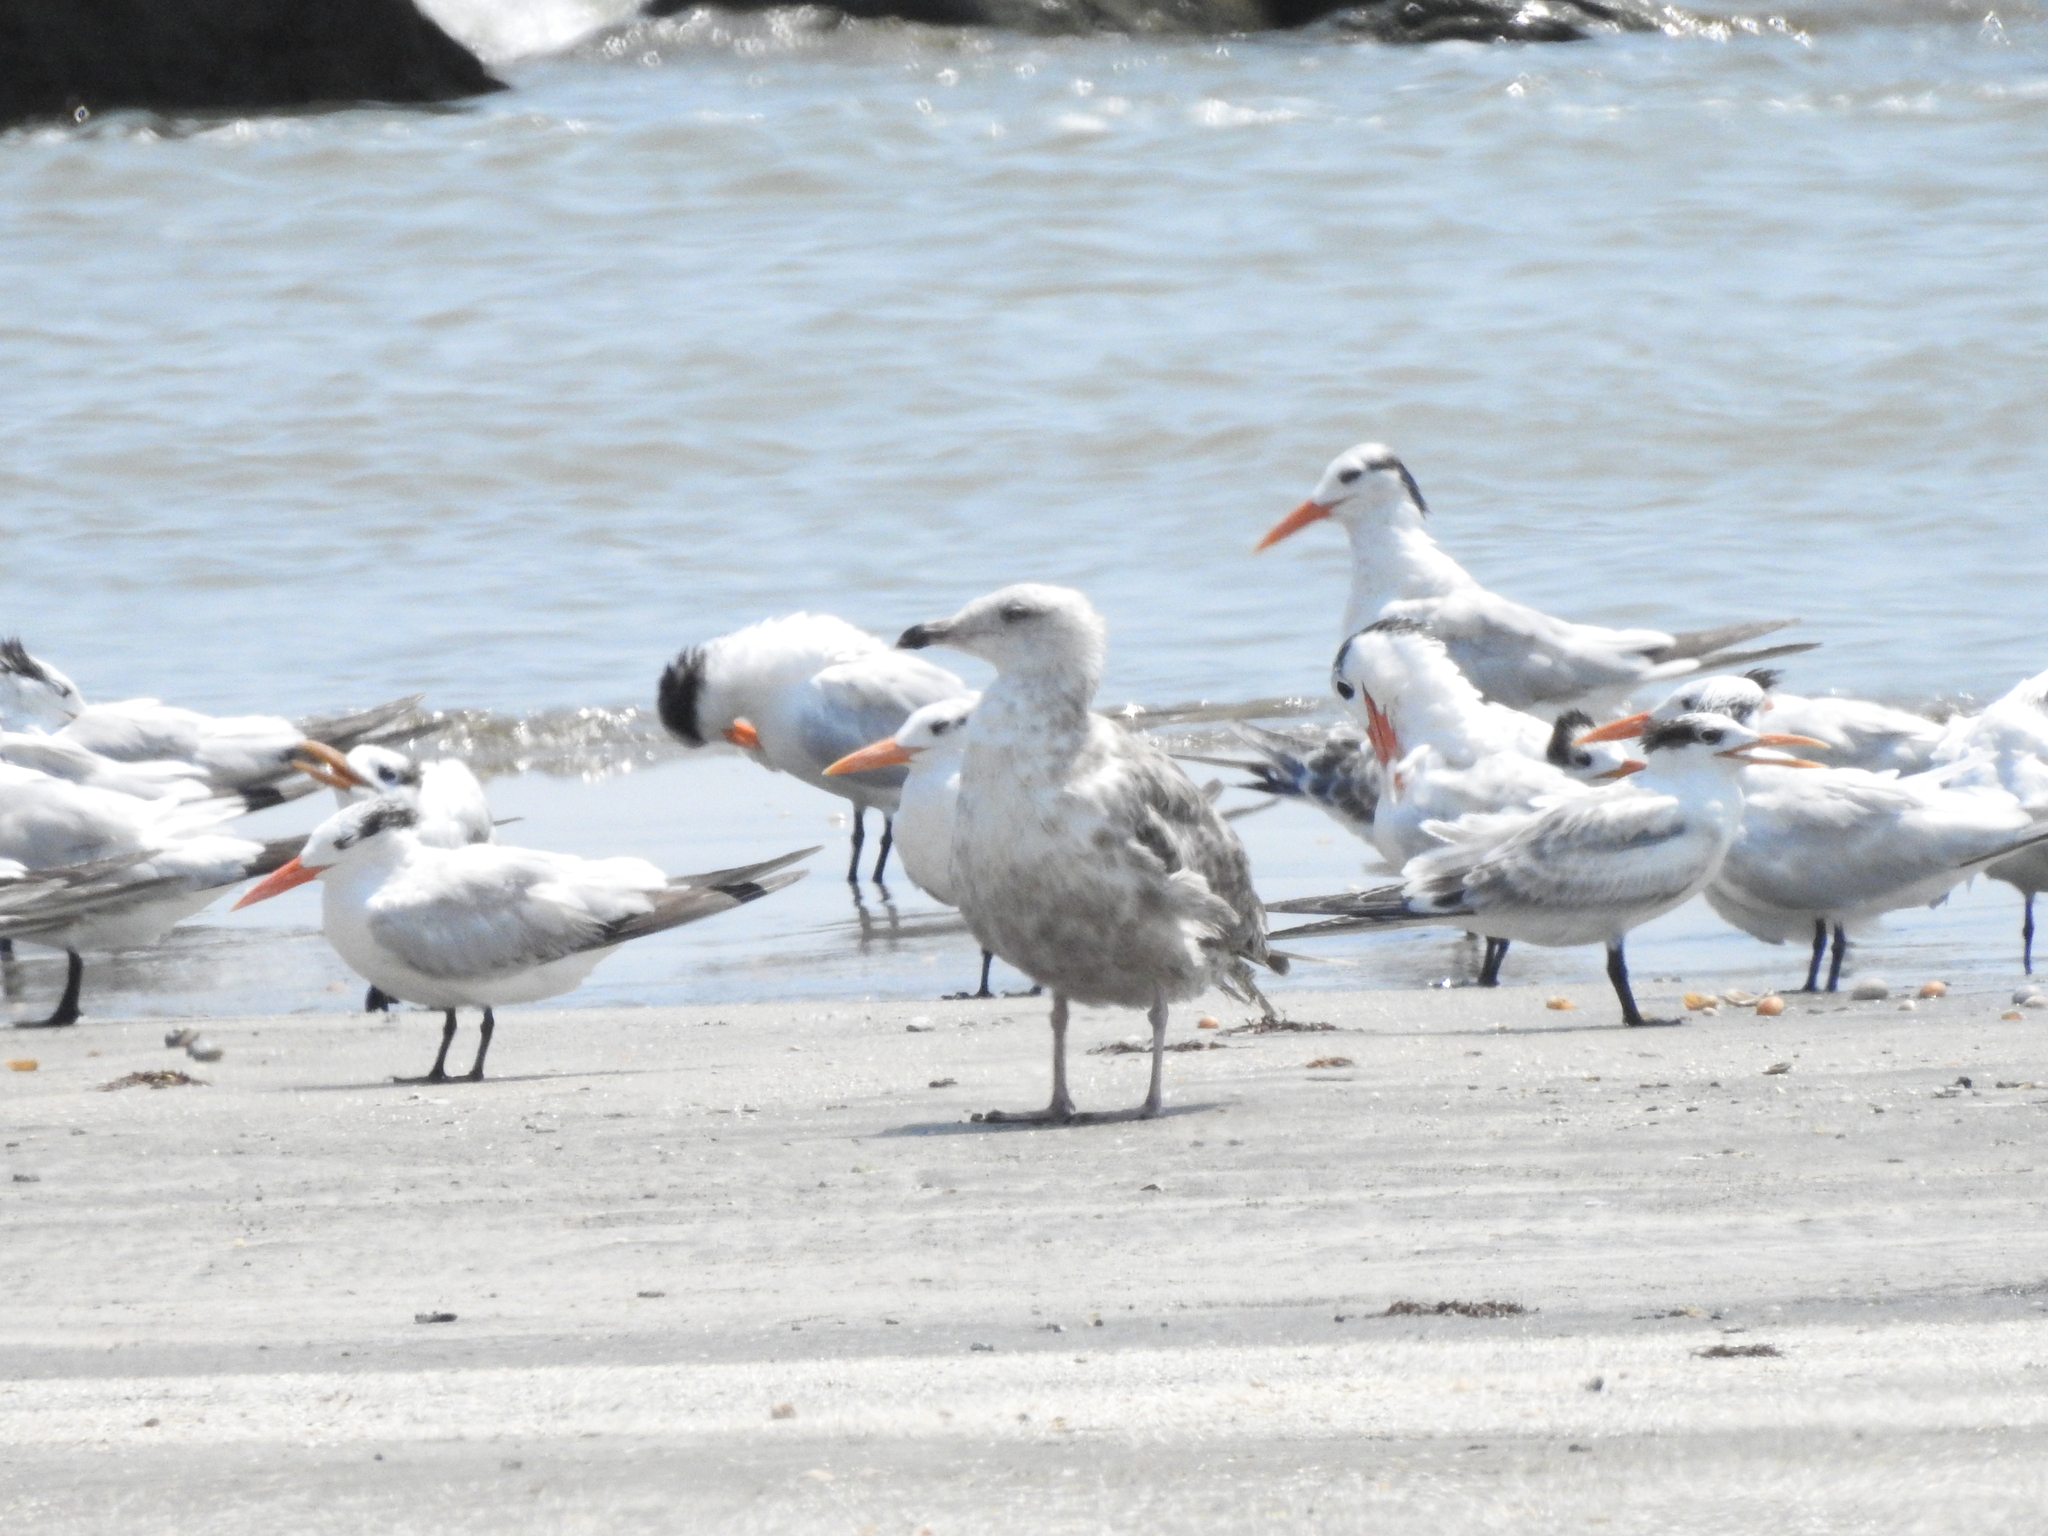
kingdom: Animalia
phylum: Chordata
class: Aves
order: Charadriiformes
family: Laridae
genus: Larus
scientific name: Larus argentatus
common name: Herring gull
